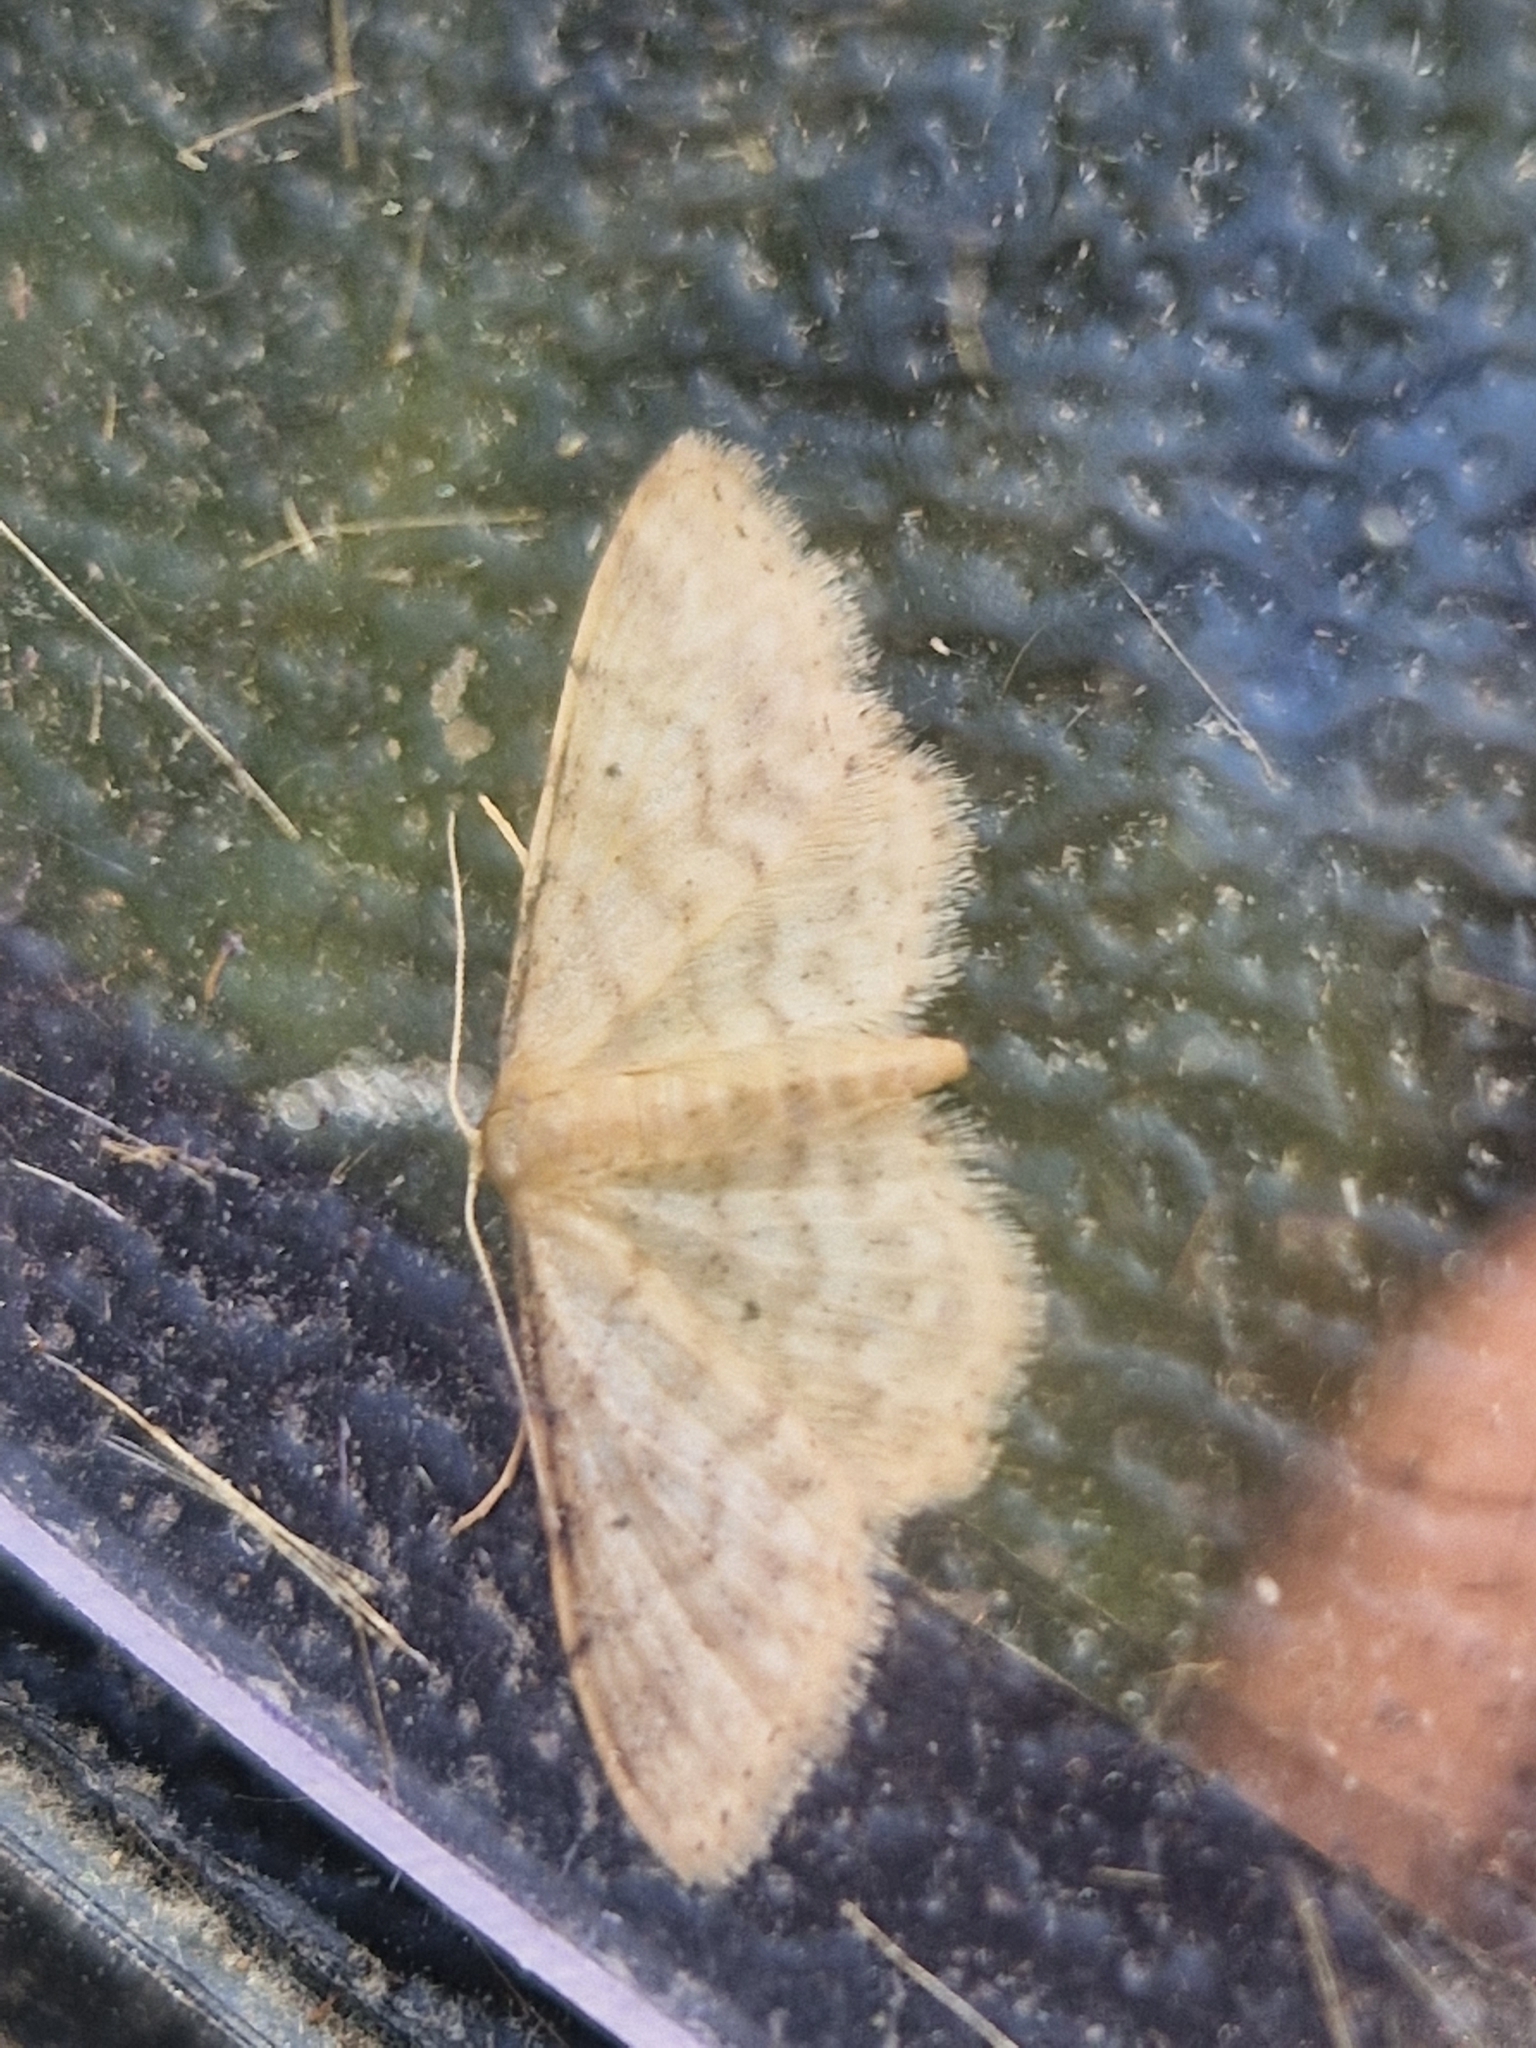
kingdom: Animalia
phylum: Arthropoda
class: Insecta
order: Lepidoptera
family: Geometridae
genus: Idaea
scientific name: Idaea fuscovenosa
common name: Dwarf cream wave
